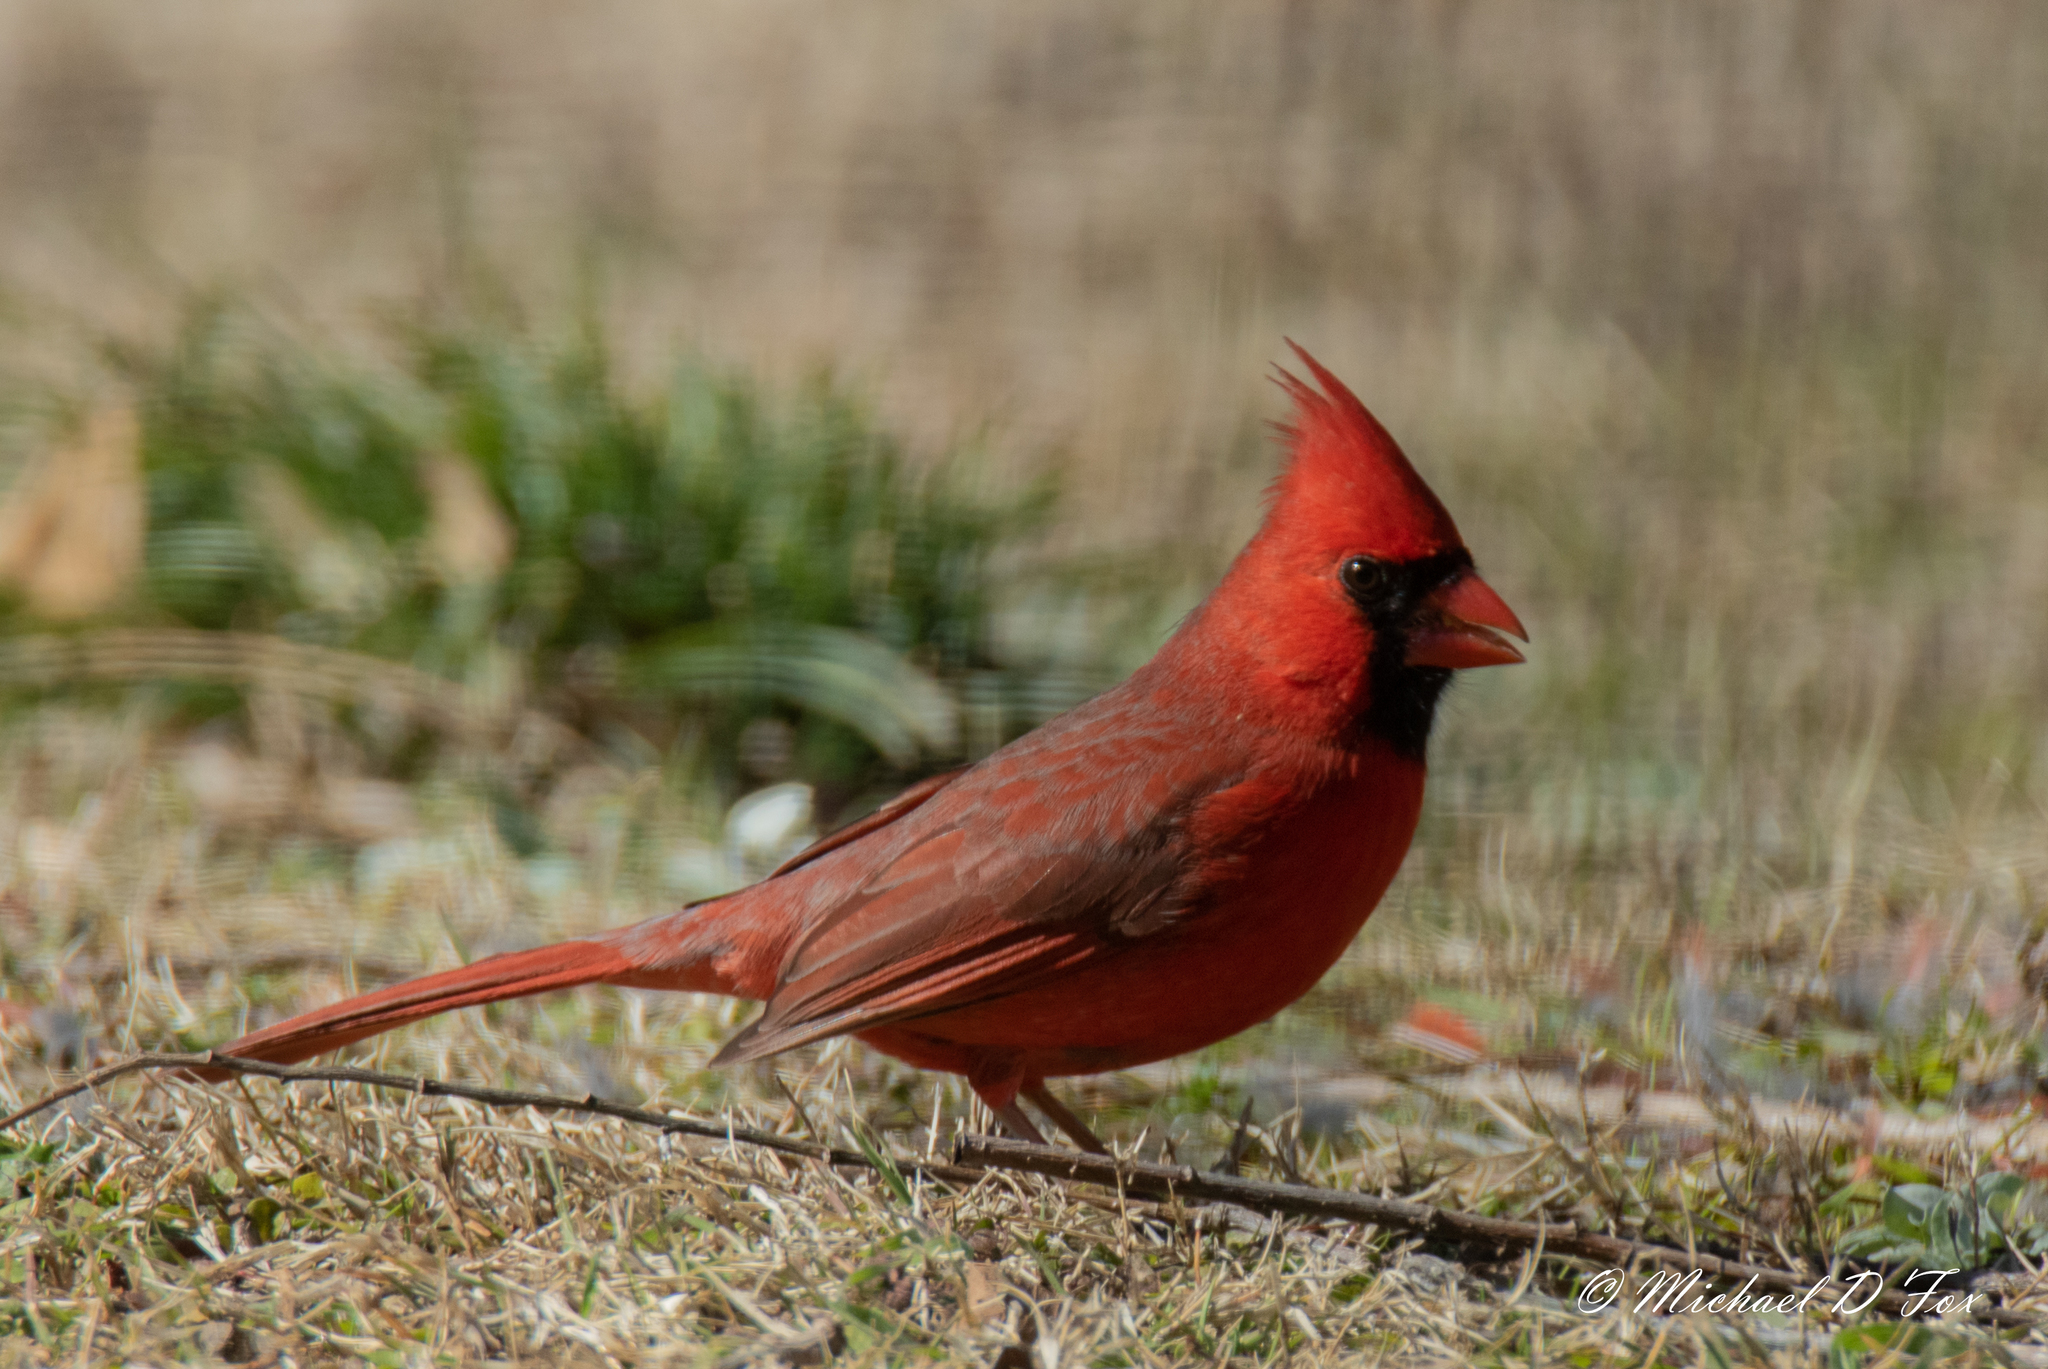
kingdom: Animalia
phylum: Chordata
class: Aves
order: Passeriformes
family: Cardinalidae
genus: Cardinalis
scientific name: Cardinalis cardinalis
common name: Northern cardinal
